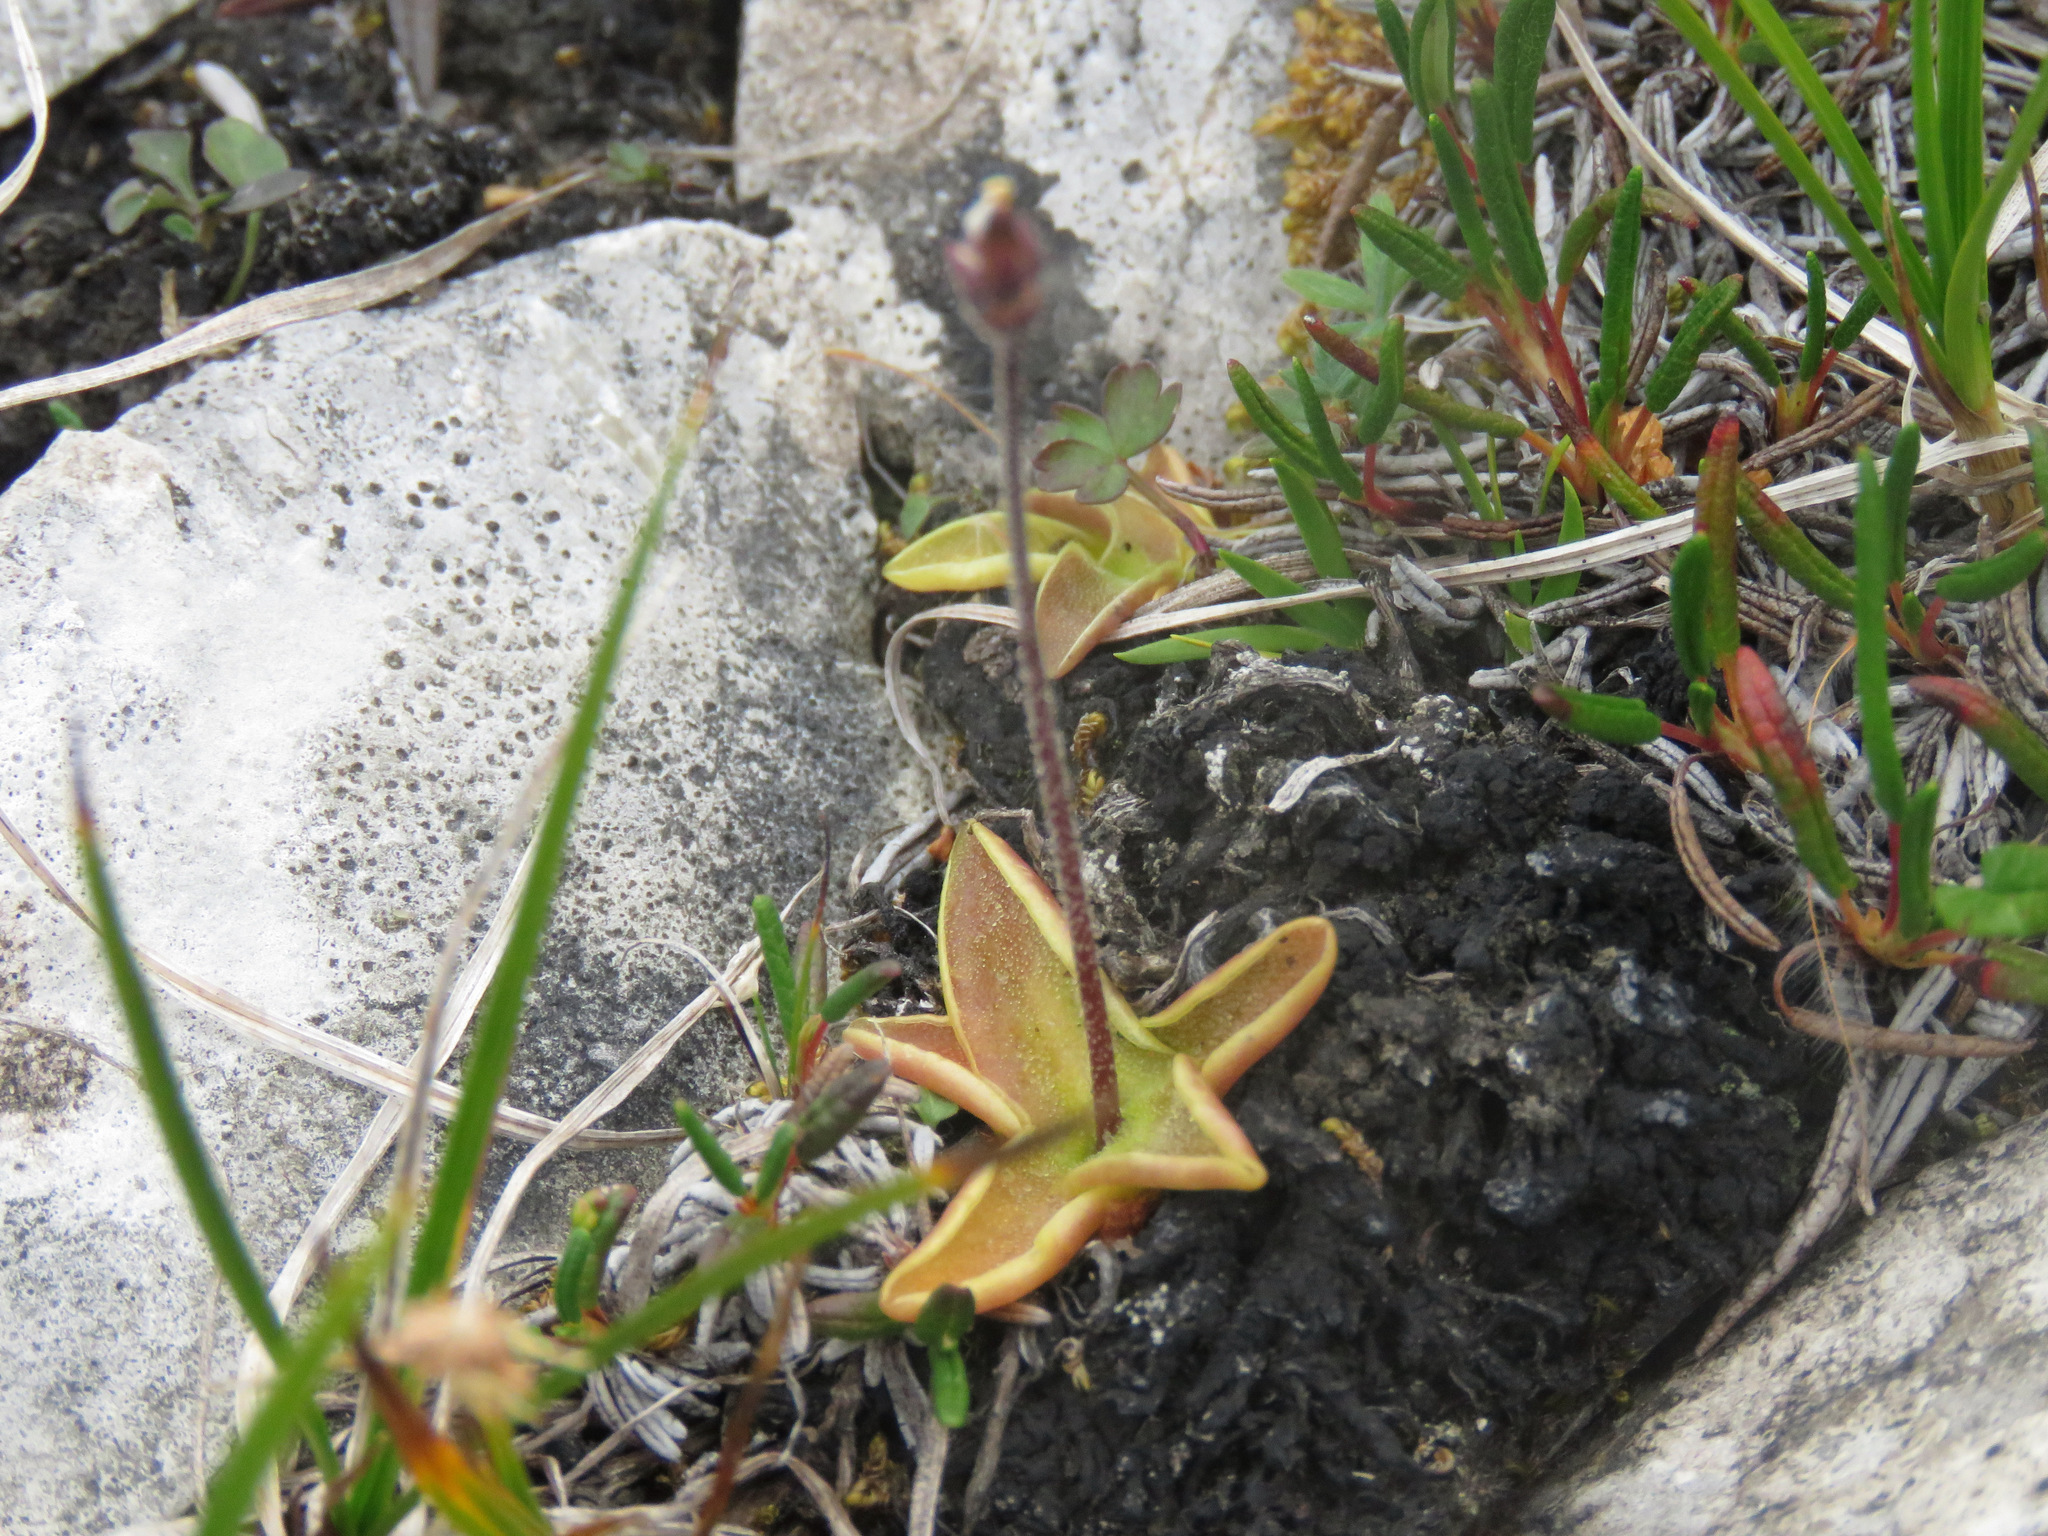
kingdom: Plantae
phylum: Tracheophyta
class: Magnoliopsida
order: Lamiales
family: Lentibulariaceae
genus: Pinguicula
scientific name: Pinguicula vulgaris
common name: Common butterwort
